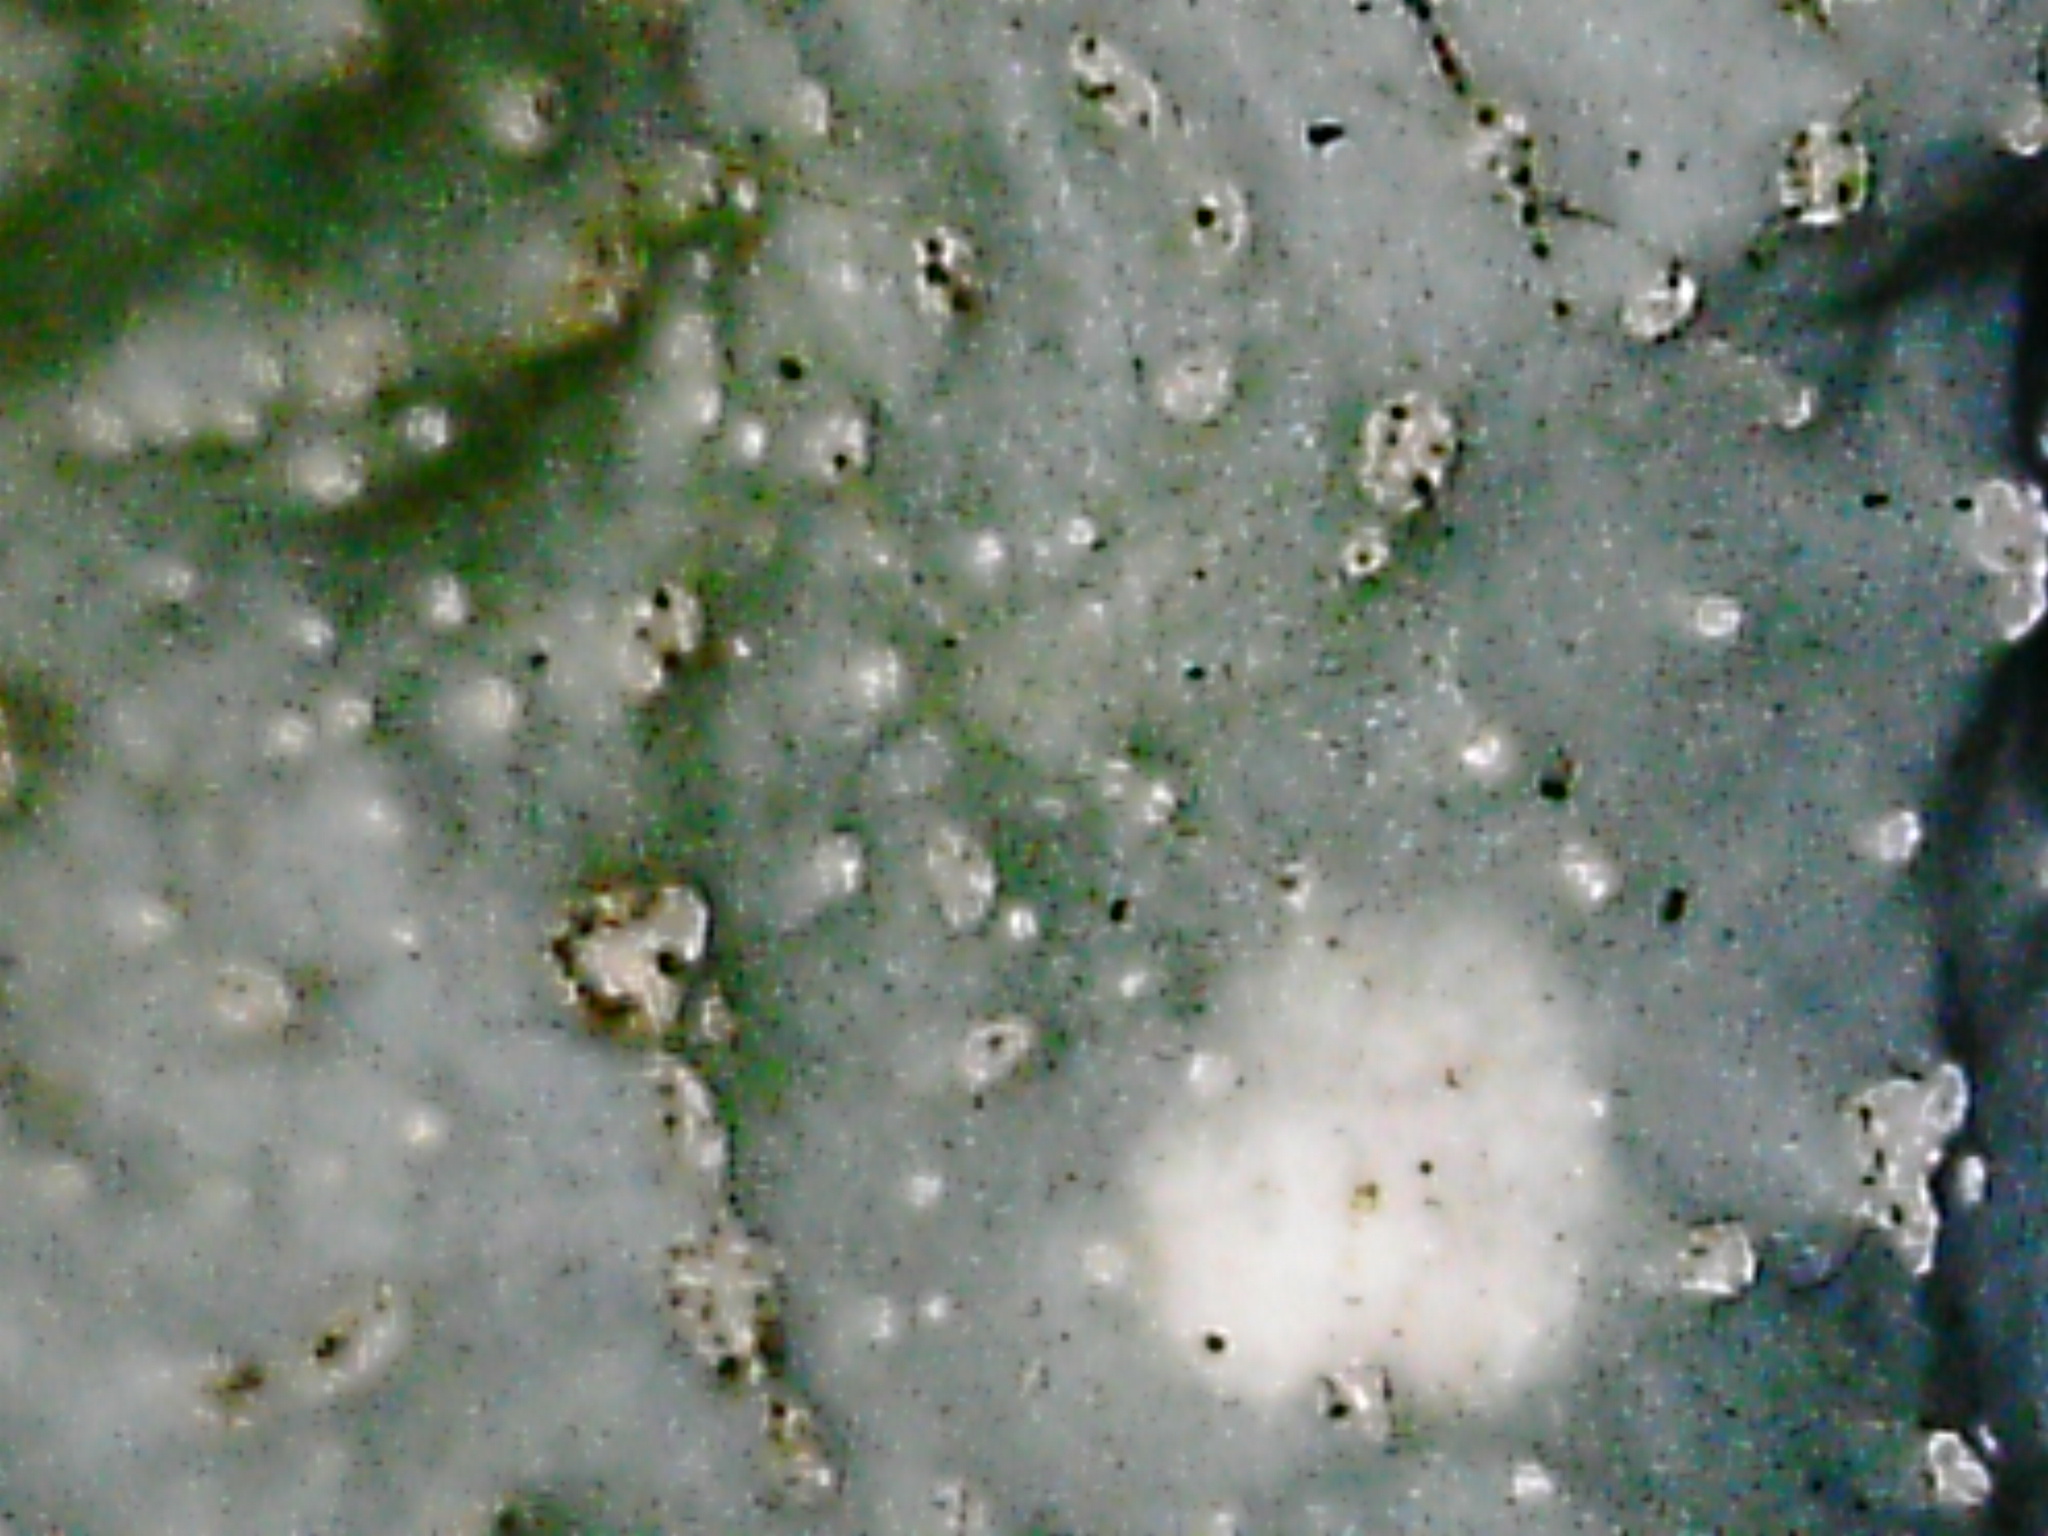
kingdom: Fungi
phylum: Ascomycota
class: Lecanoromycetes
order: Lecanorales
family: Parmeliaceae
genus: Punctelia
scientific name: Punctelia rudecta
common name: Rough speckled shield lichen
